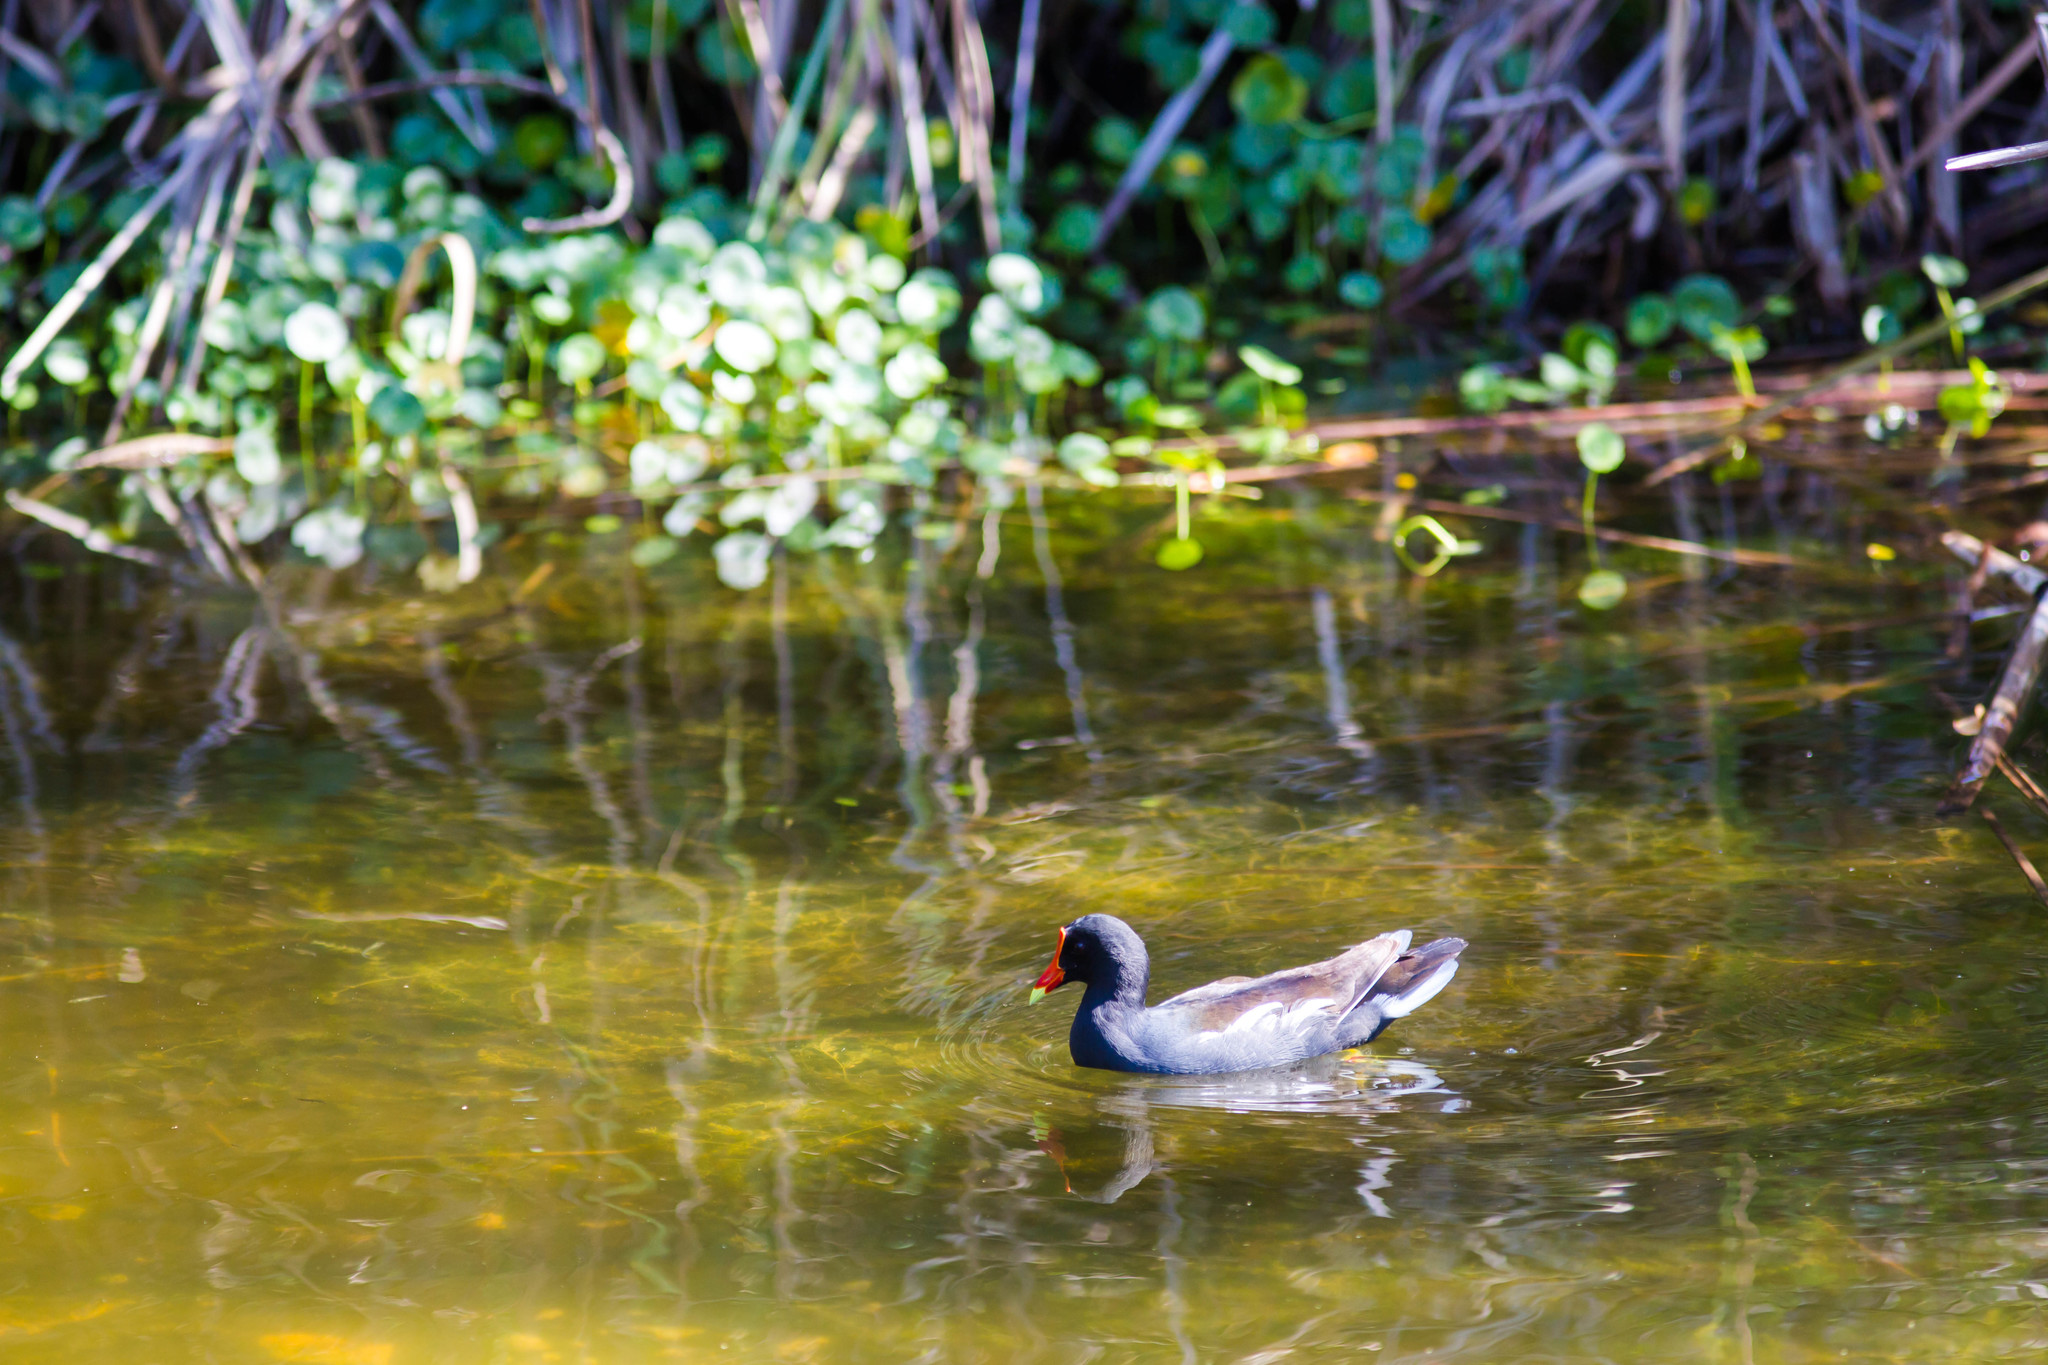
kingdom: Animalia
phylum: Chordata
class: Aves
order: Gruiformes
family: Rallidae
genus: Gallinula
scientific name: Gallinula chloropus
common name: Common moorhen
